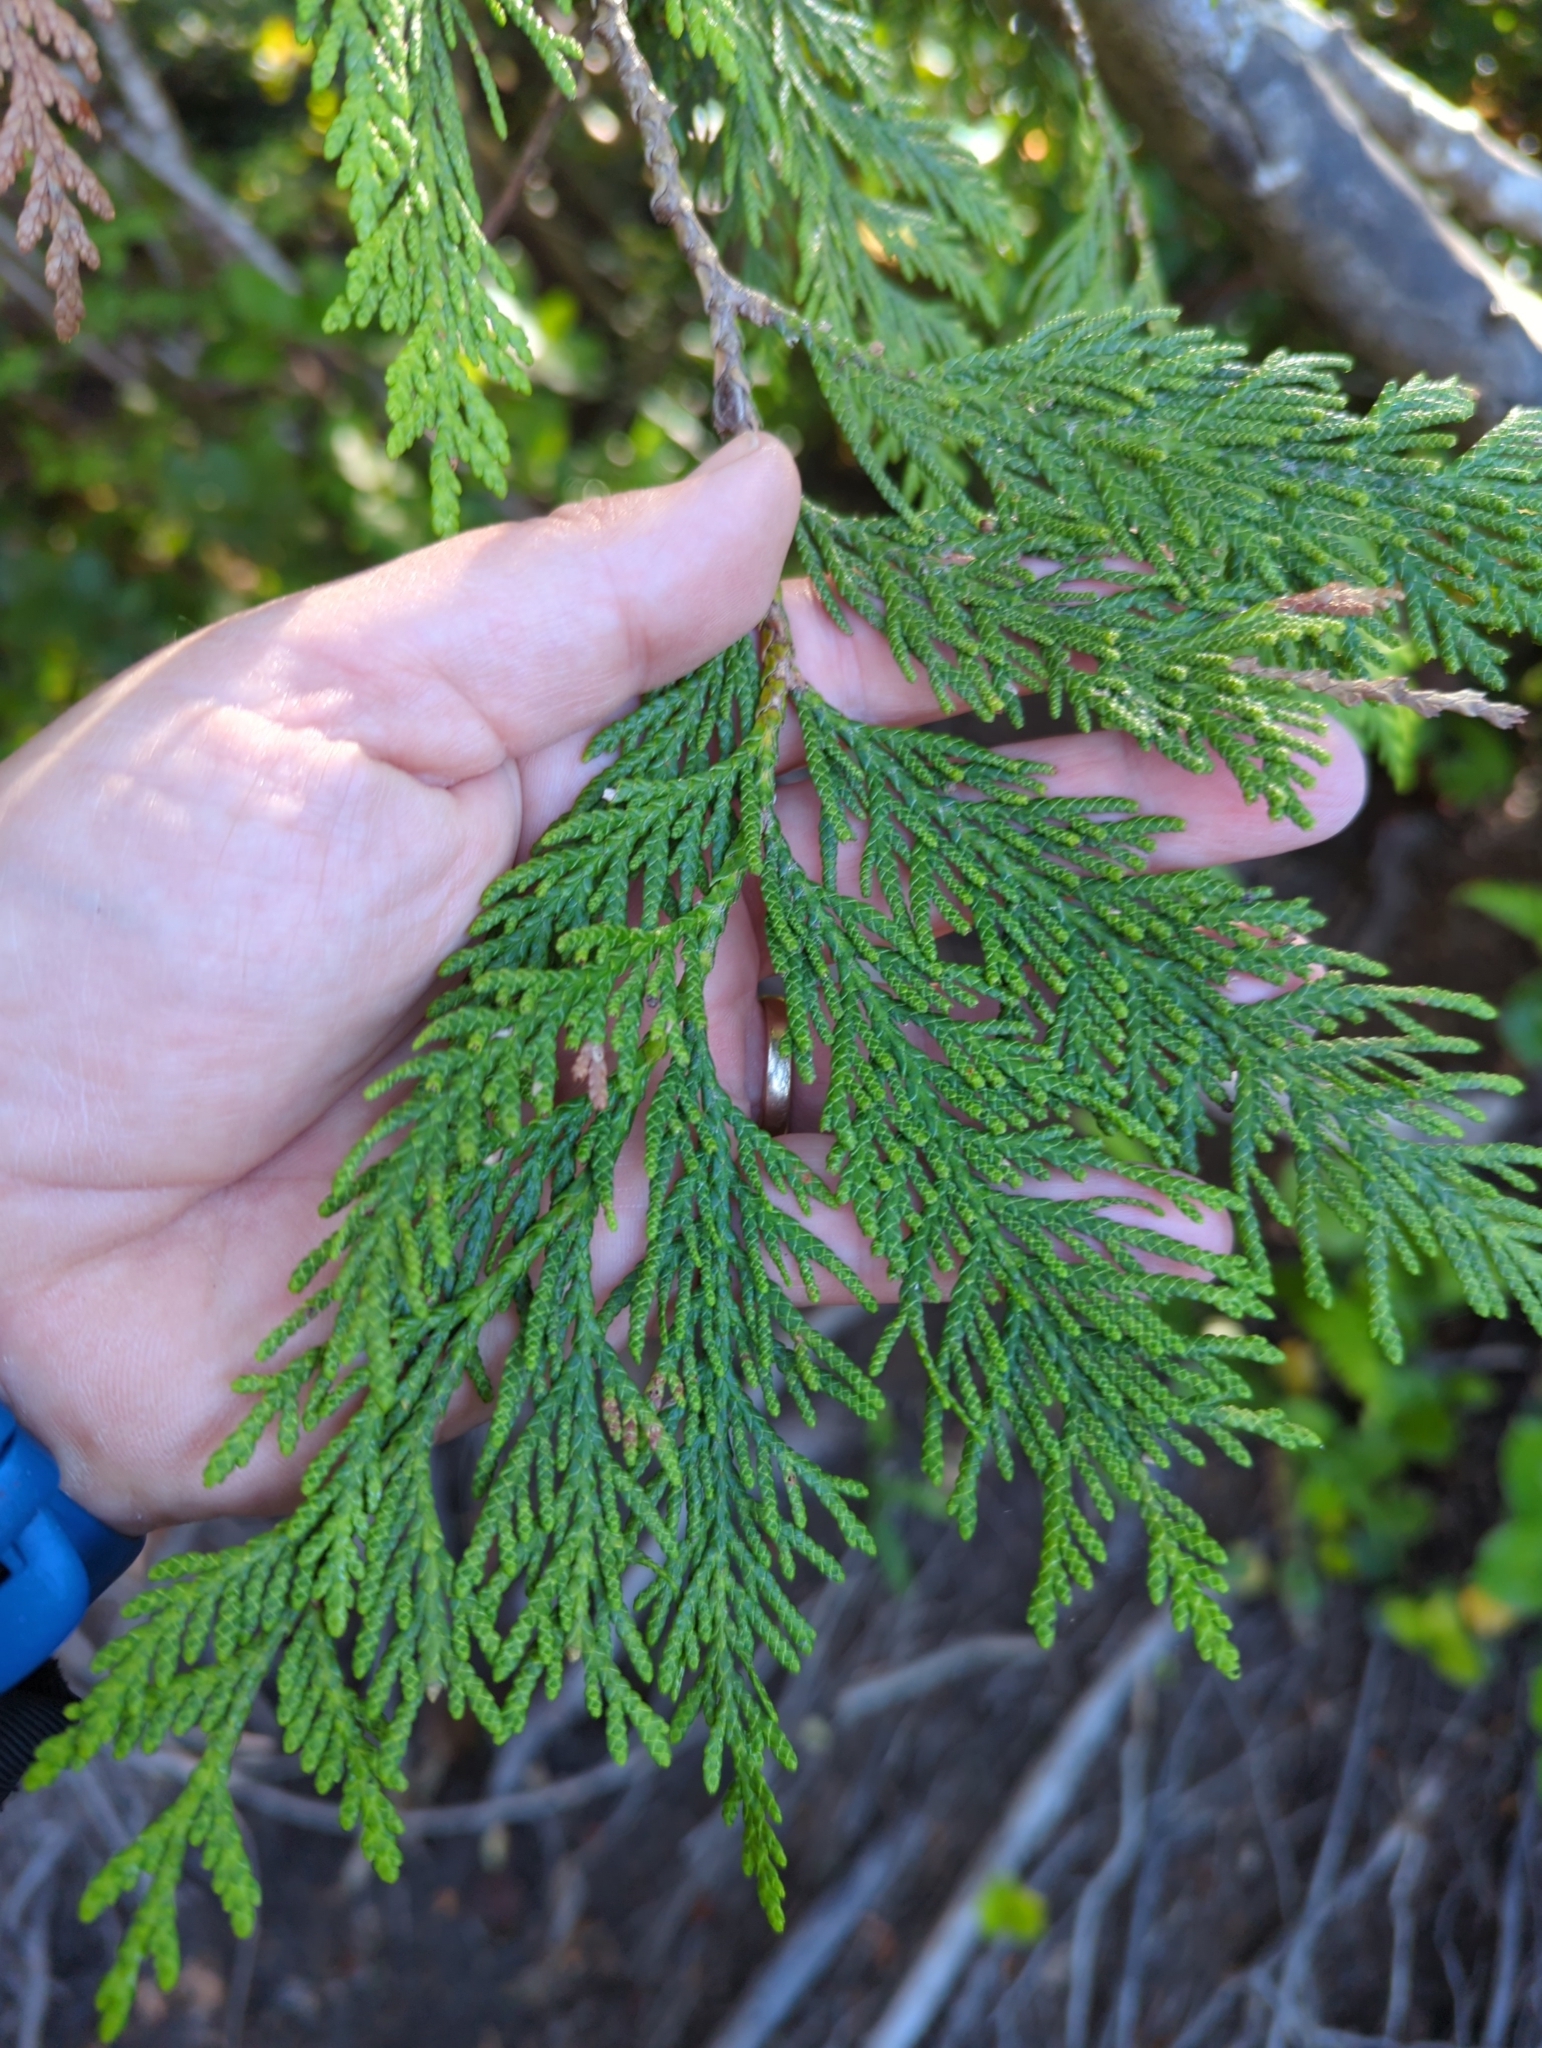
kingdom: Plantae
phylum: Tracheophyta
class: Pinopsida
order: Pinales
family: Cupressaceae
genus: Thuja
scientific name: Thuja plicata
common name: Western red-cedar
